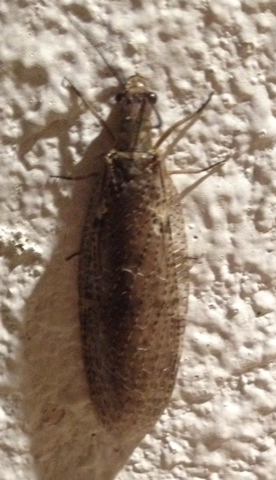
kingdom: Animalia
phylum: Arthropoda
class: Insecta
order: Megaloptera
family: Corydalidae
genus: Chauliodes
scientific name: Chauliodes pectinicornis
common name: Summer fishfly
